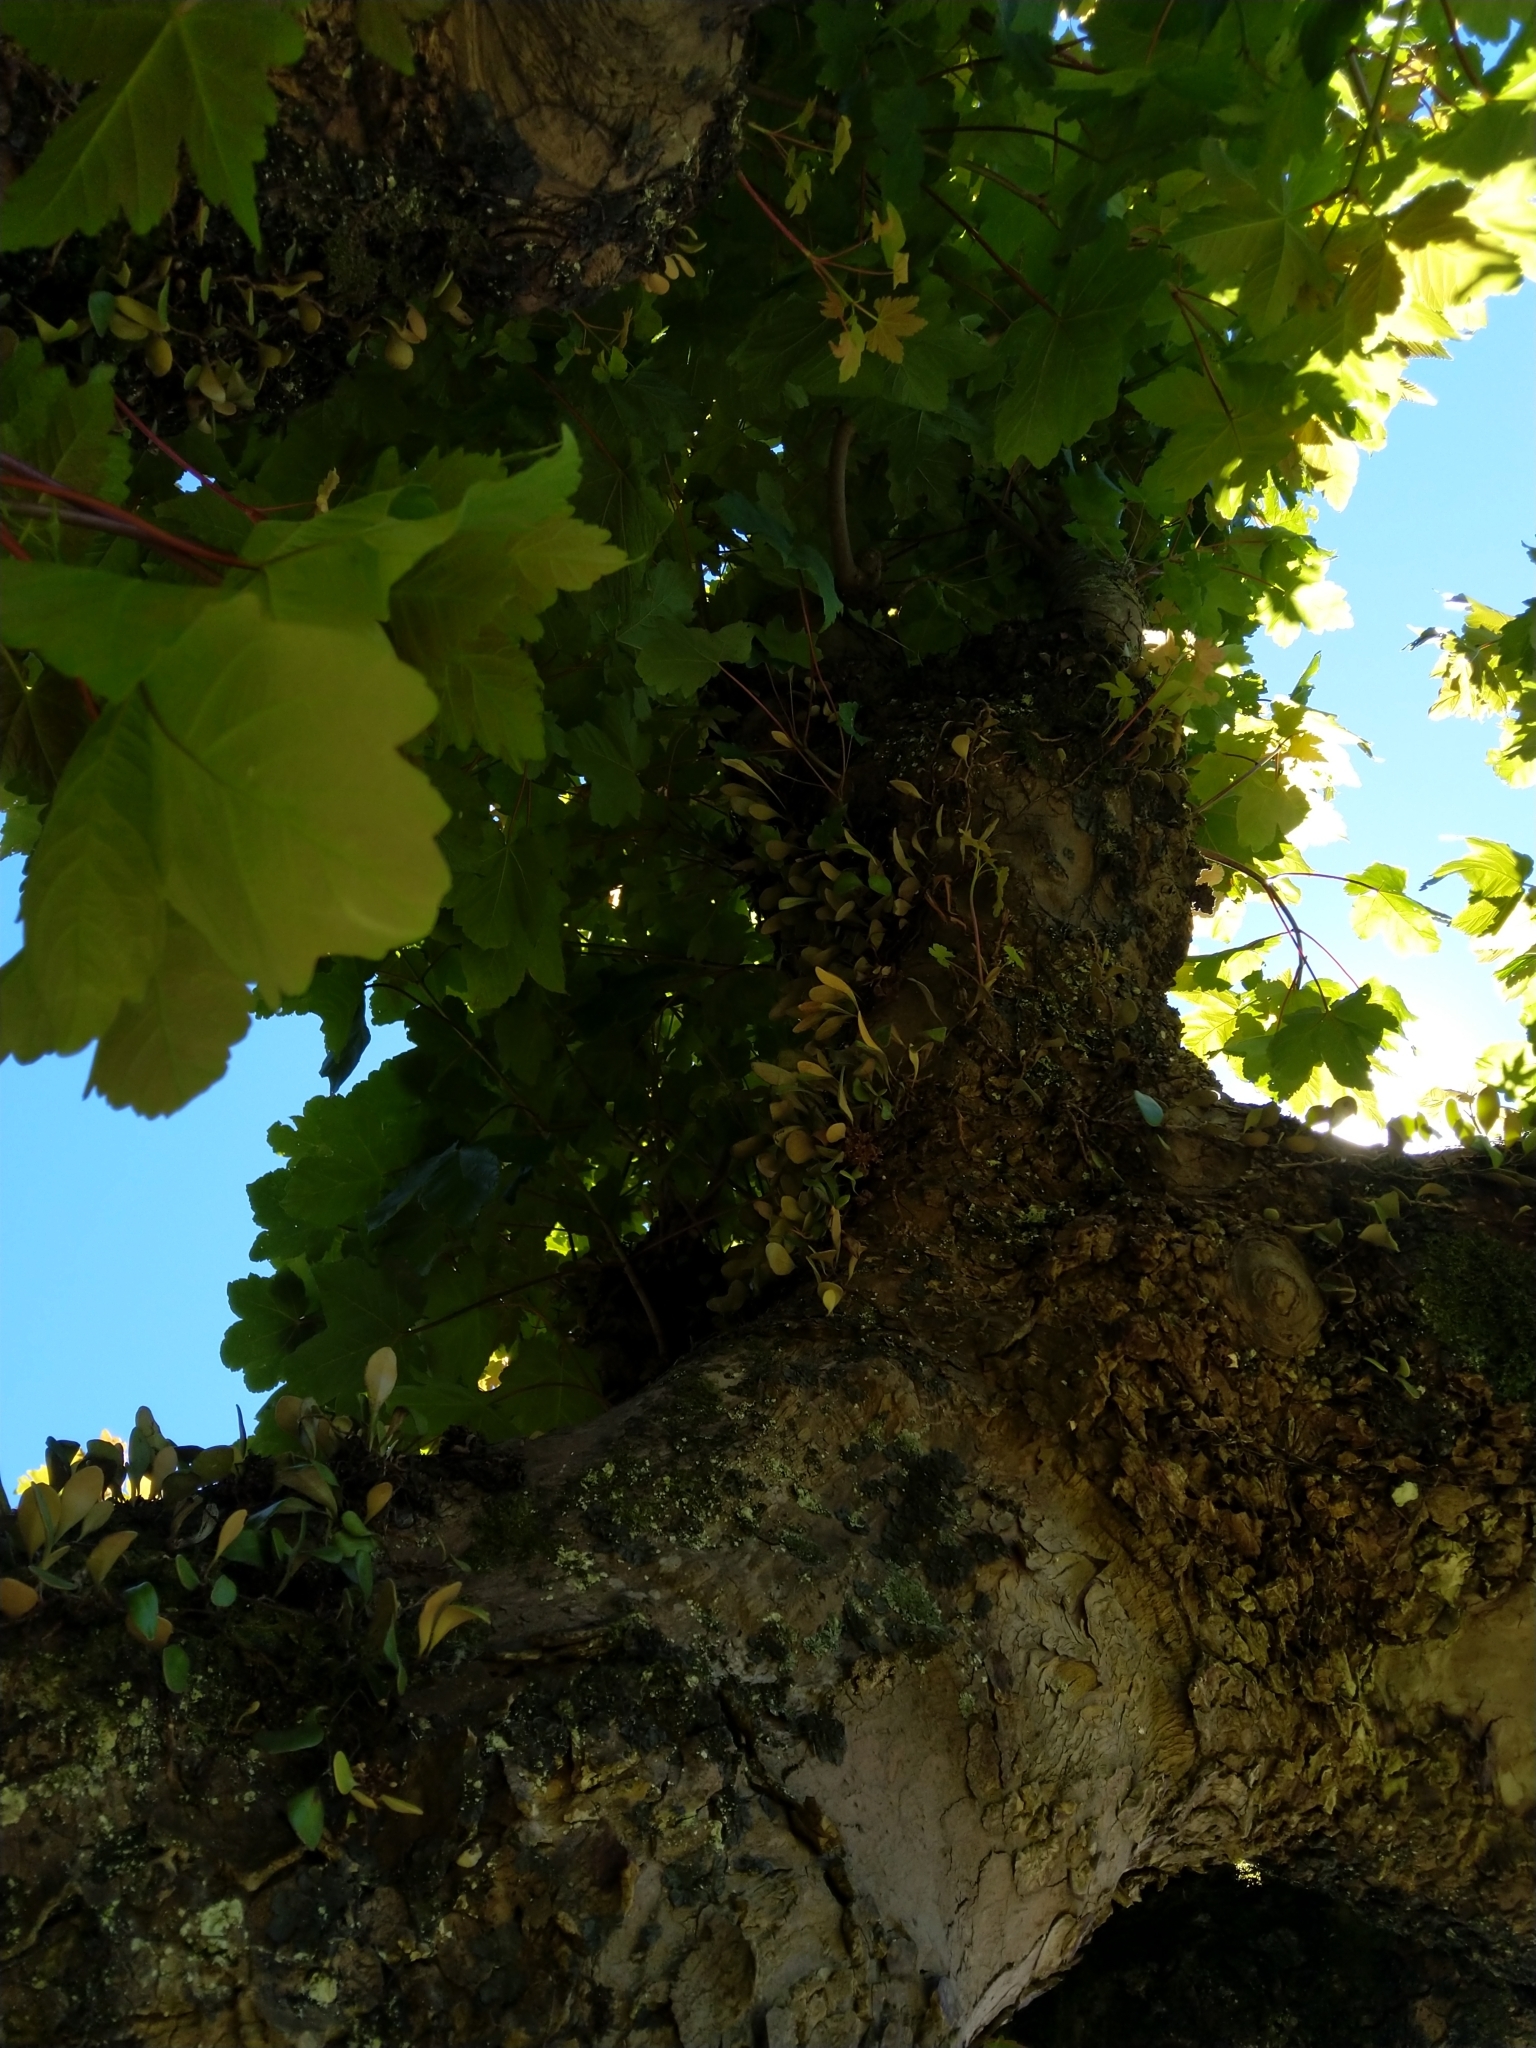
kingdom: Plantae
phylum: Tracheophyta
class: Polypodiopsida
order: Polypodiales
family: Polypodiaceae
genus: Pyrrosia
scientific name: Pyrrosia eleagnifolia
